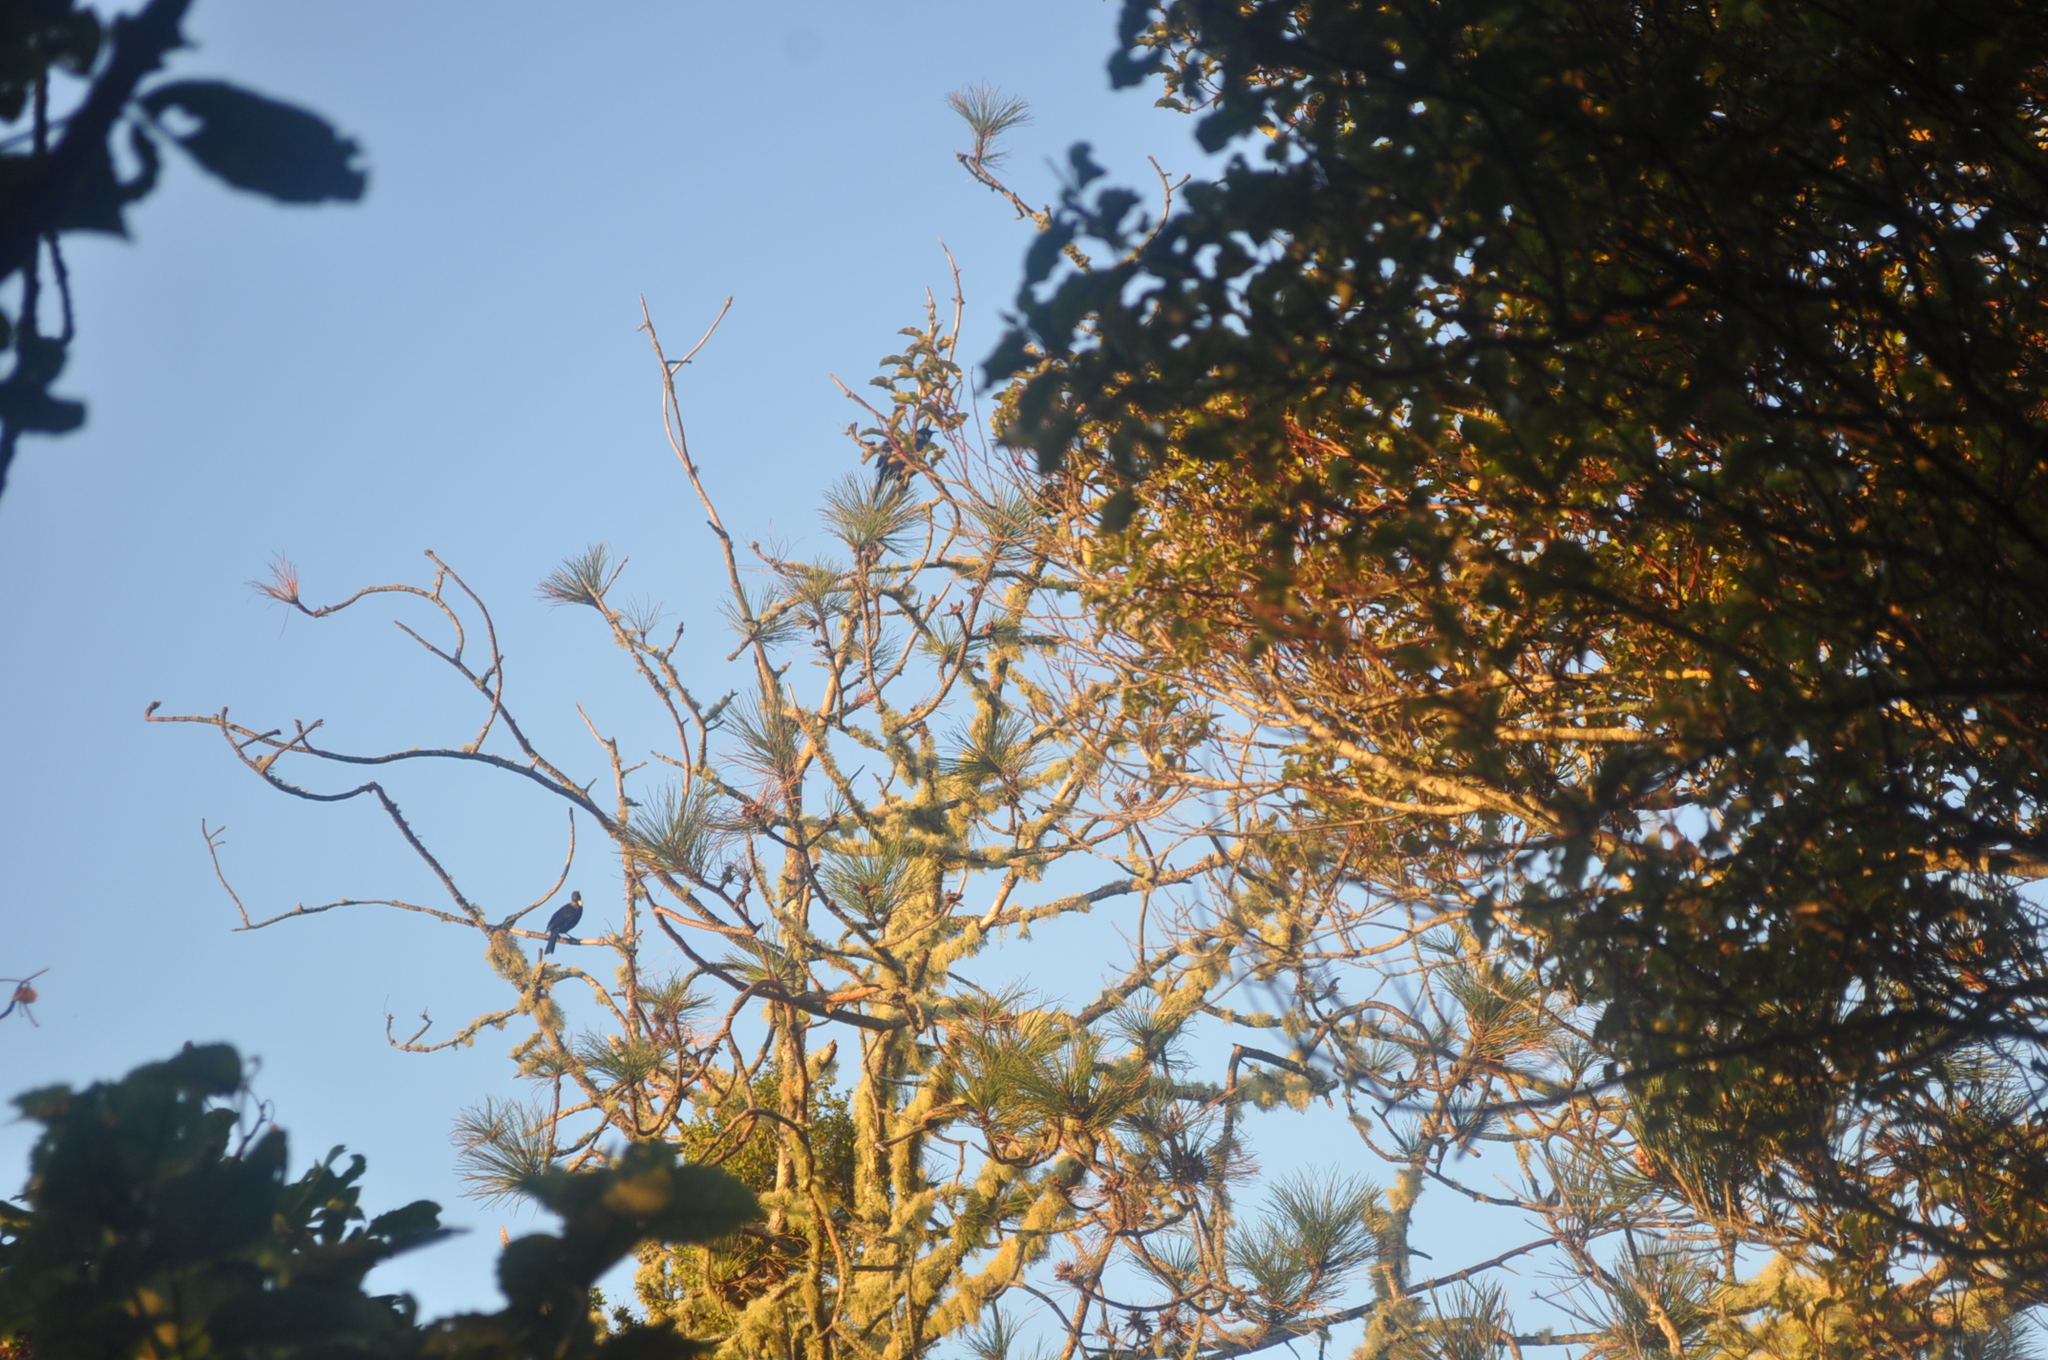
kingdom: Animalia
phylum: Chordata
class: Aves
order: Passeriformes
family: Meliphagidae
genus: Prosthemadera
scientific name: Prosthemadera novaeseelandiae
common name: Tui
